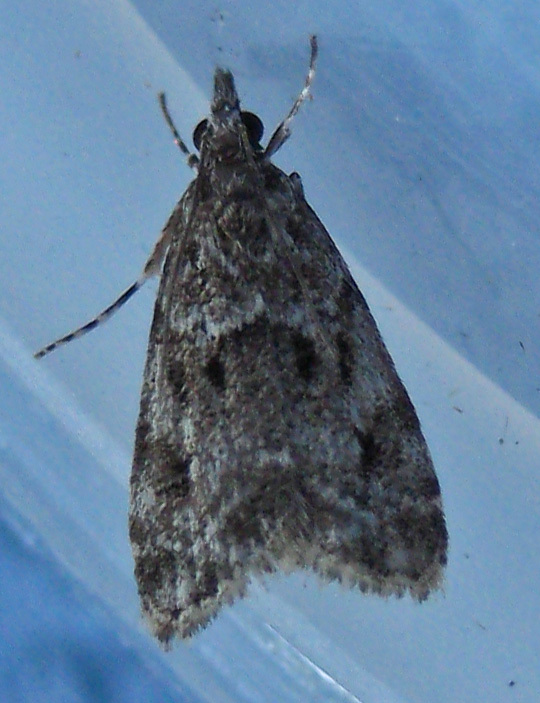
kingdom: Animalia
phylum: Arthropoda
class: Insecta
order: Lepidoptera
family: Crambidae
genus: Eudonia
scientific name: Eudonia heterosalis
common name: Mcdunnough's eudonia
